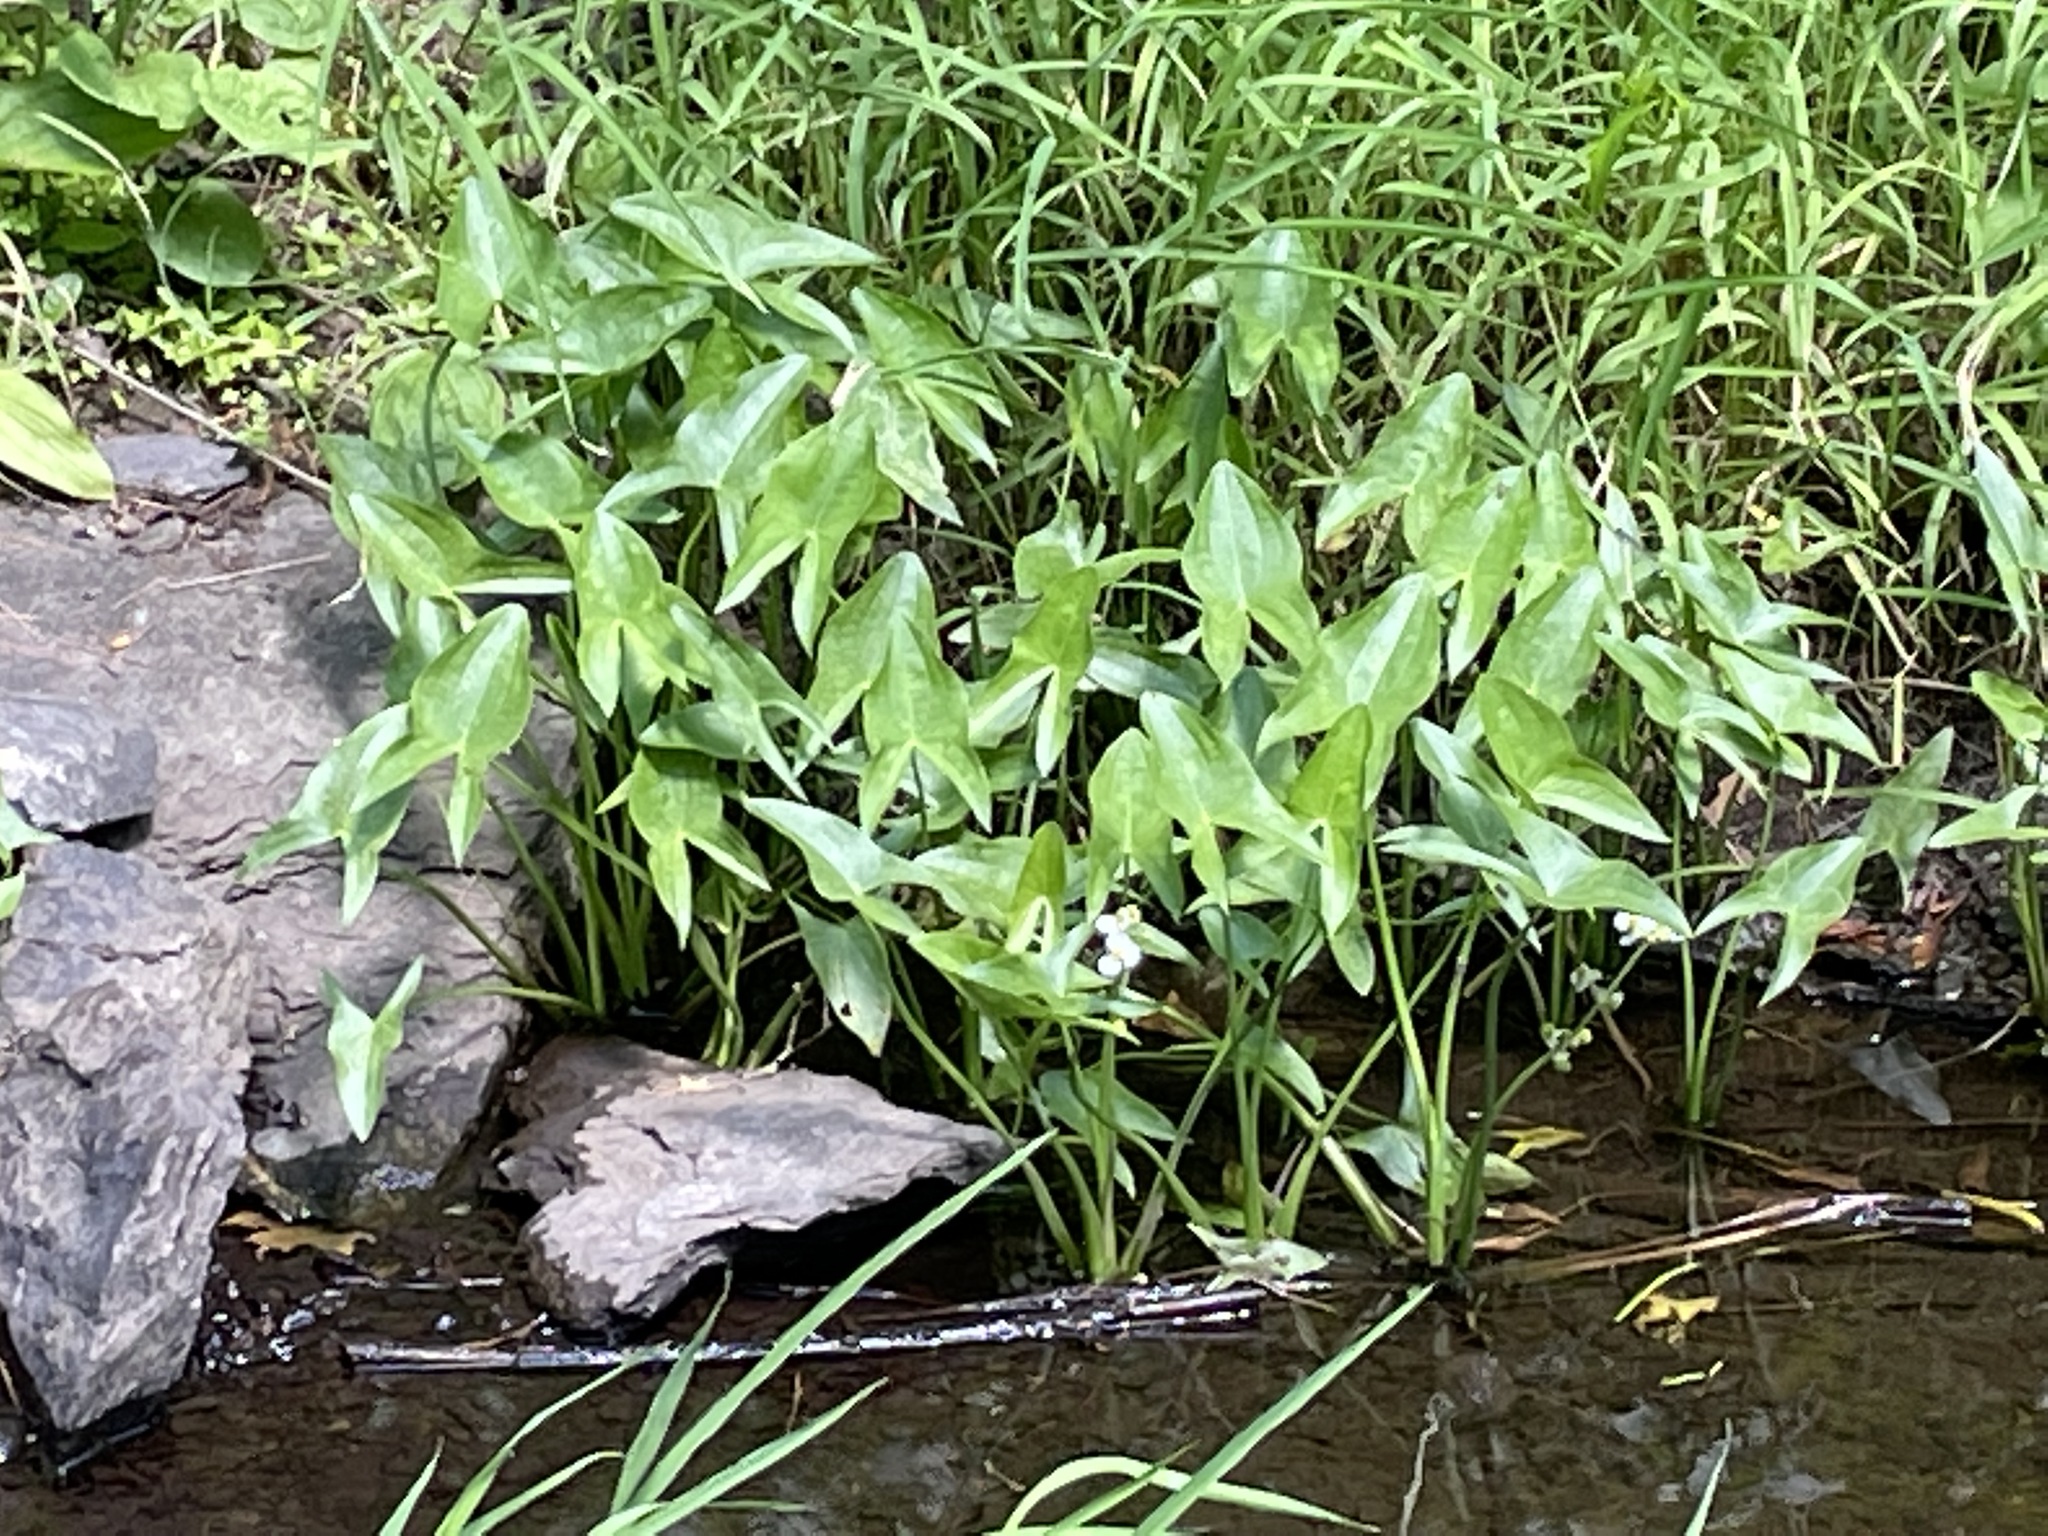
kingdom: Plantae
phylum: Tracheophyta
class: Liliopsida
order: Alismatales
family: Alismataceae
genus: Sagittaria
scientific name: Sagittaria latifolia
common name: Duck-potato
